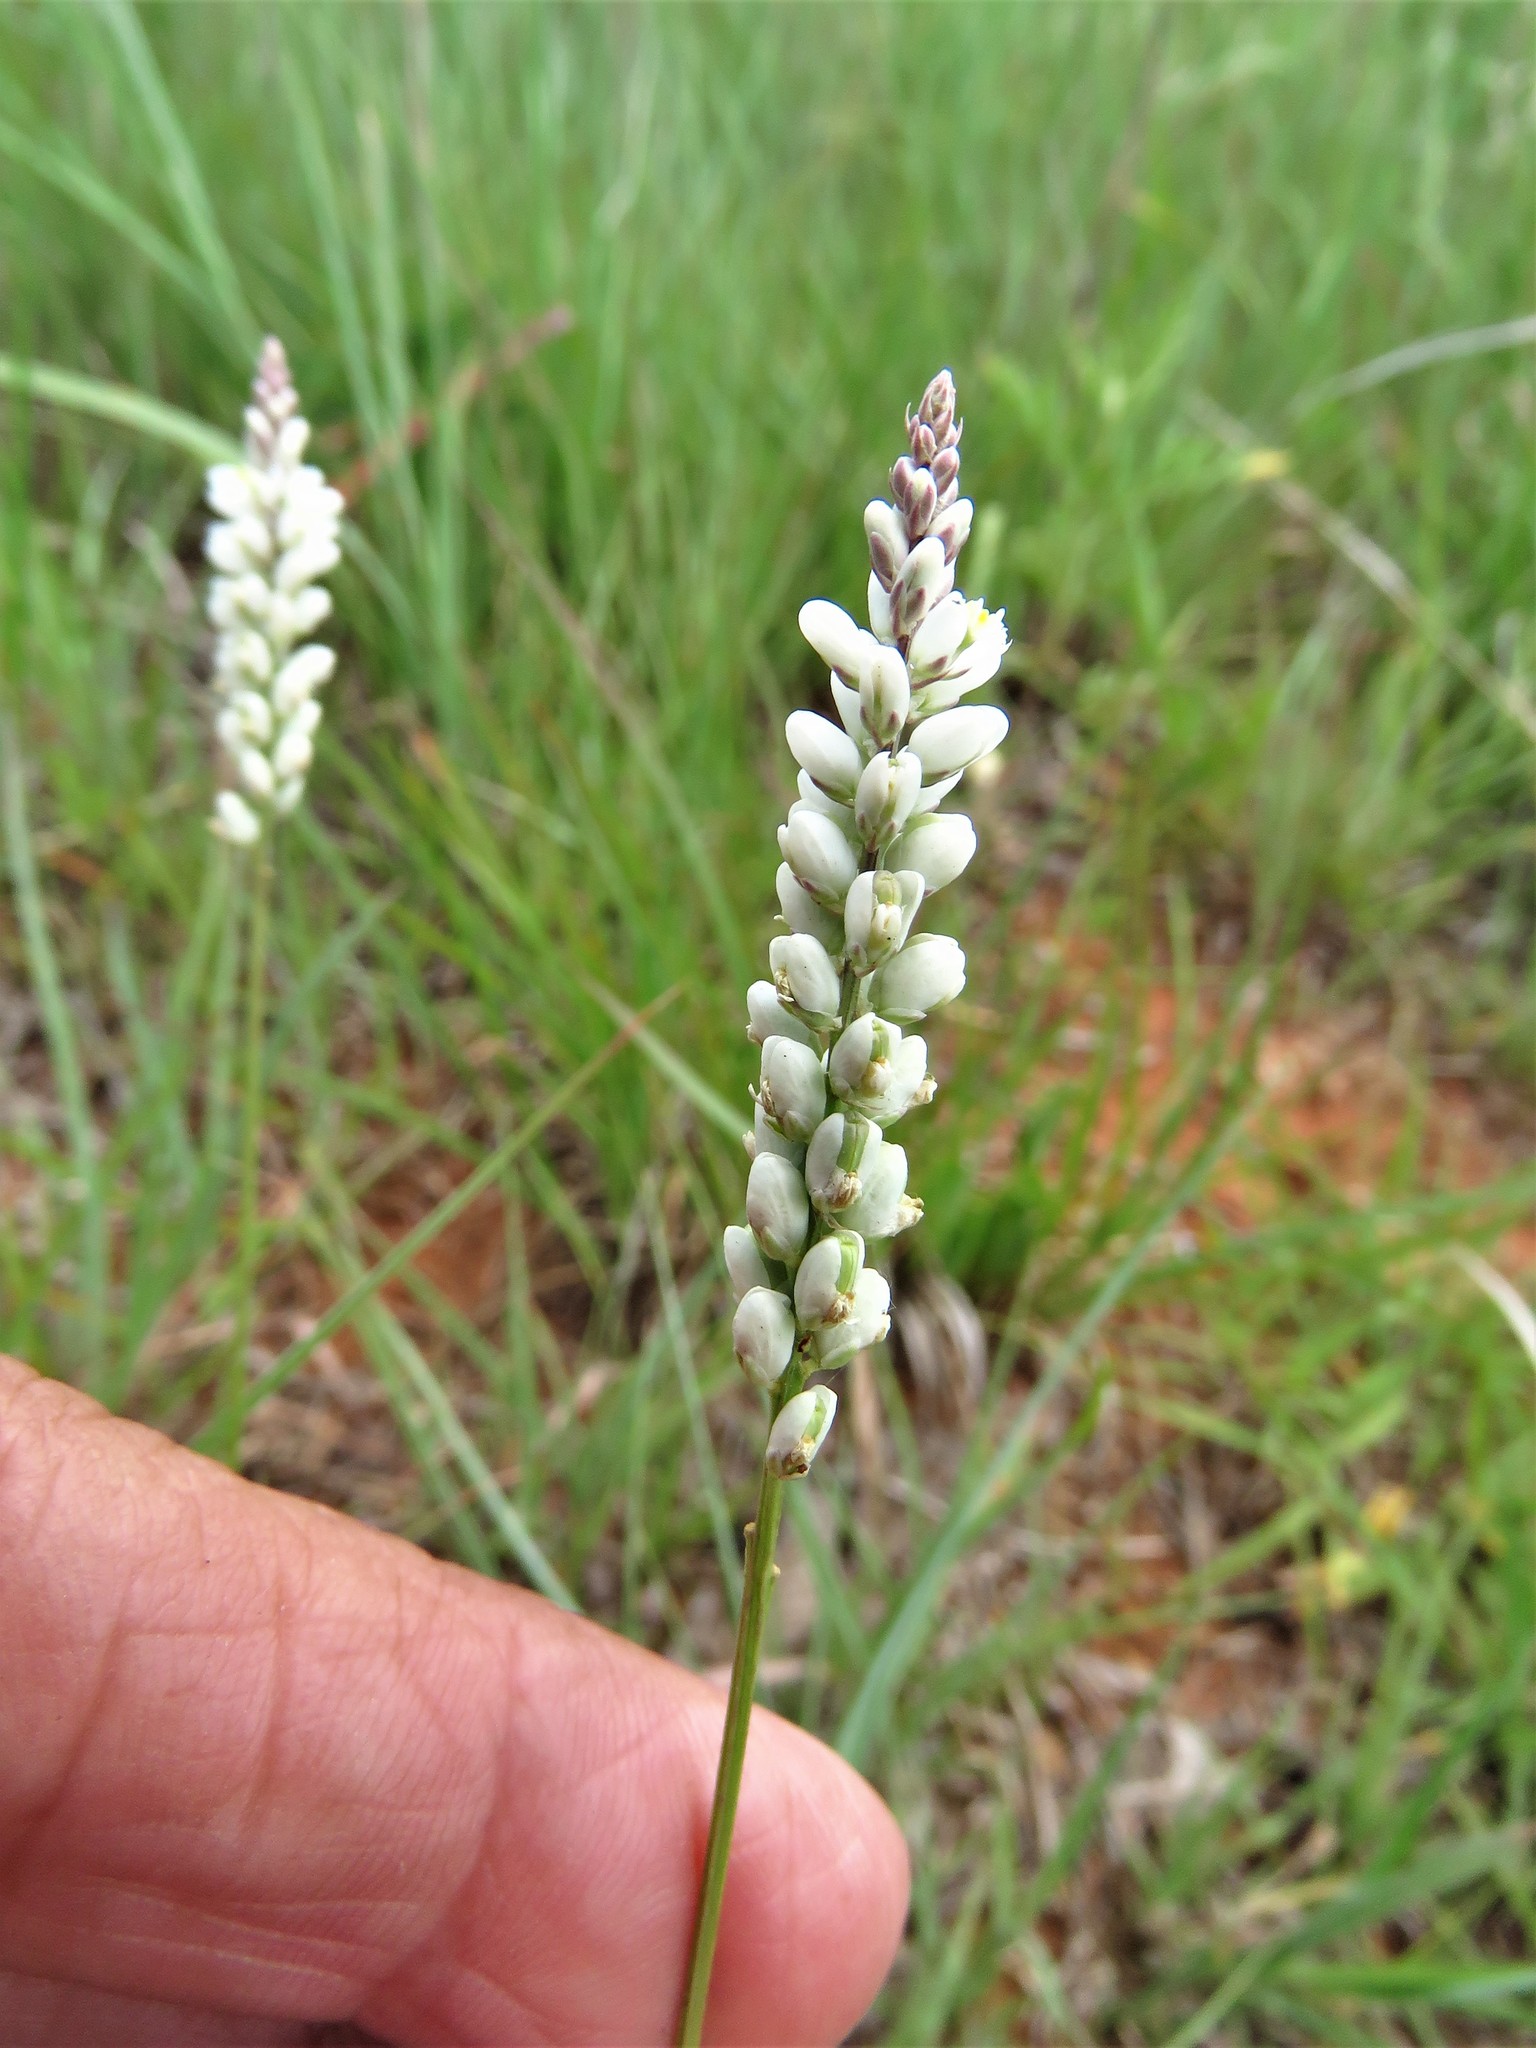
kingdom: Plantae
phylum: Tracheophyta
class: Magnoliopsida
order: Fabales
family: Polygalaceae
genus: Polygala
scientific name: Polygala alba
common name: White milkwort
